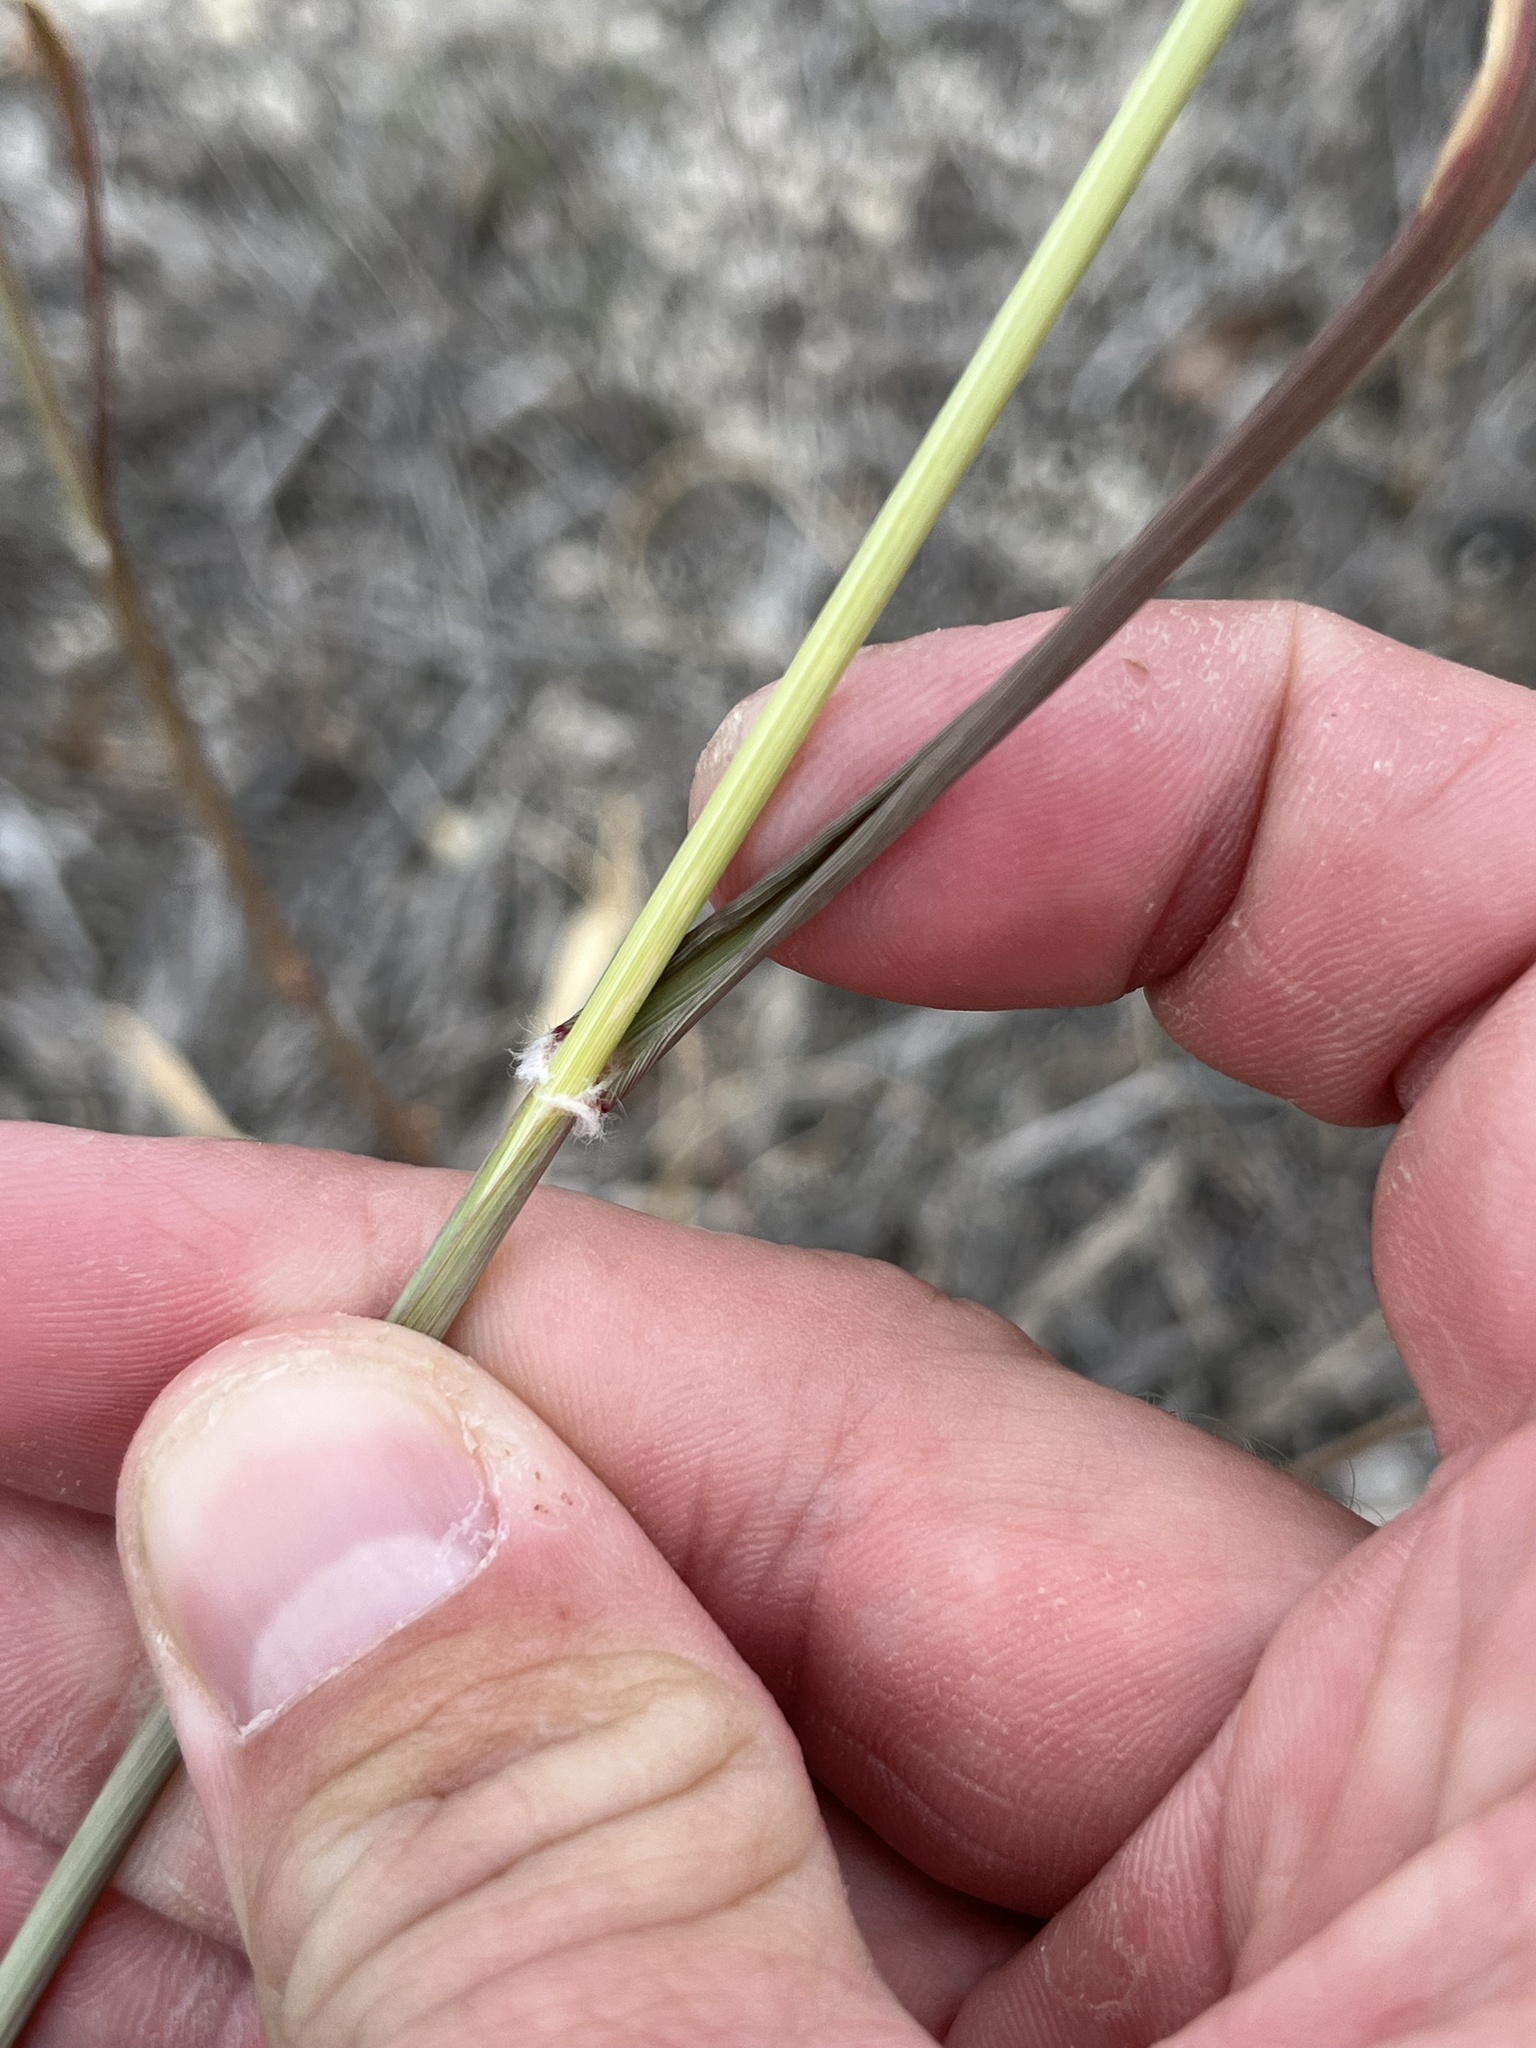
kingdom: Plantae
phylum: Tracheophyta
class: Liliopsida
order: Poales
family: Poaceae
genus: Eragrostis
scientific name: Eragrostis superba
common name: Wilman lovegrass
